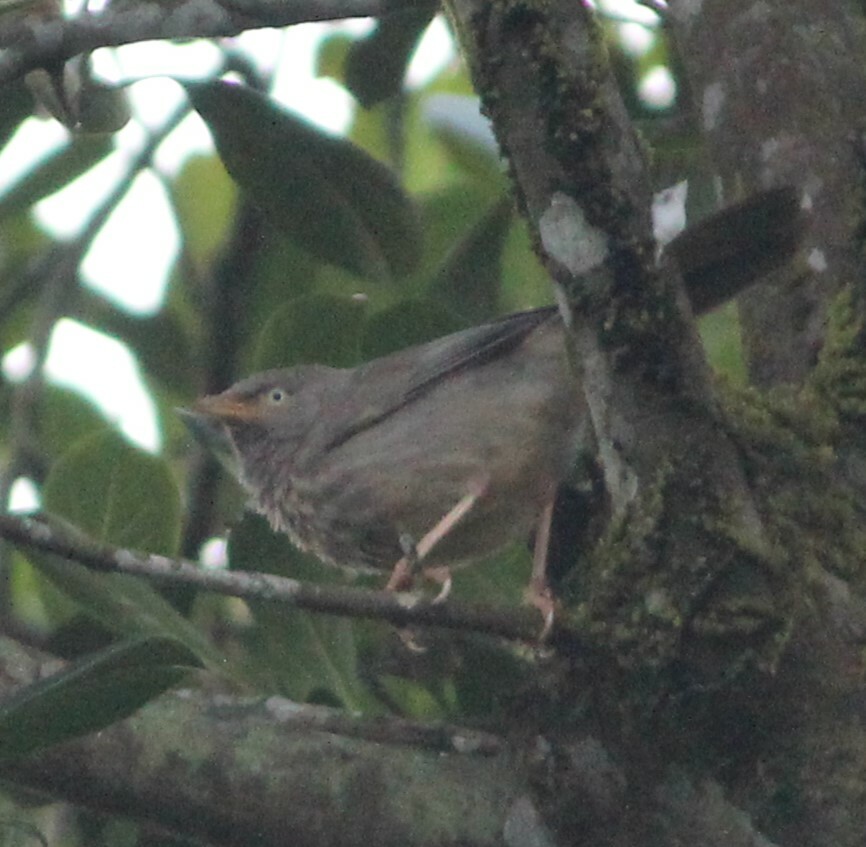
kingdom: Animalia
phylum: Chordata
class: Aves
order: Passeriformes
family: Leiothrichidae
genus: Turdoides
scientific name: Turdoides striata
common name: Jungle babbler
